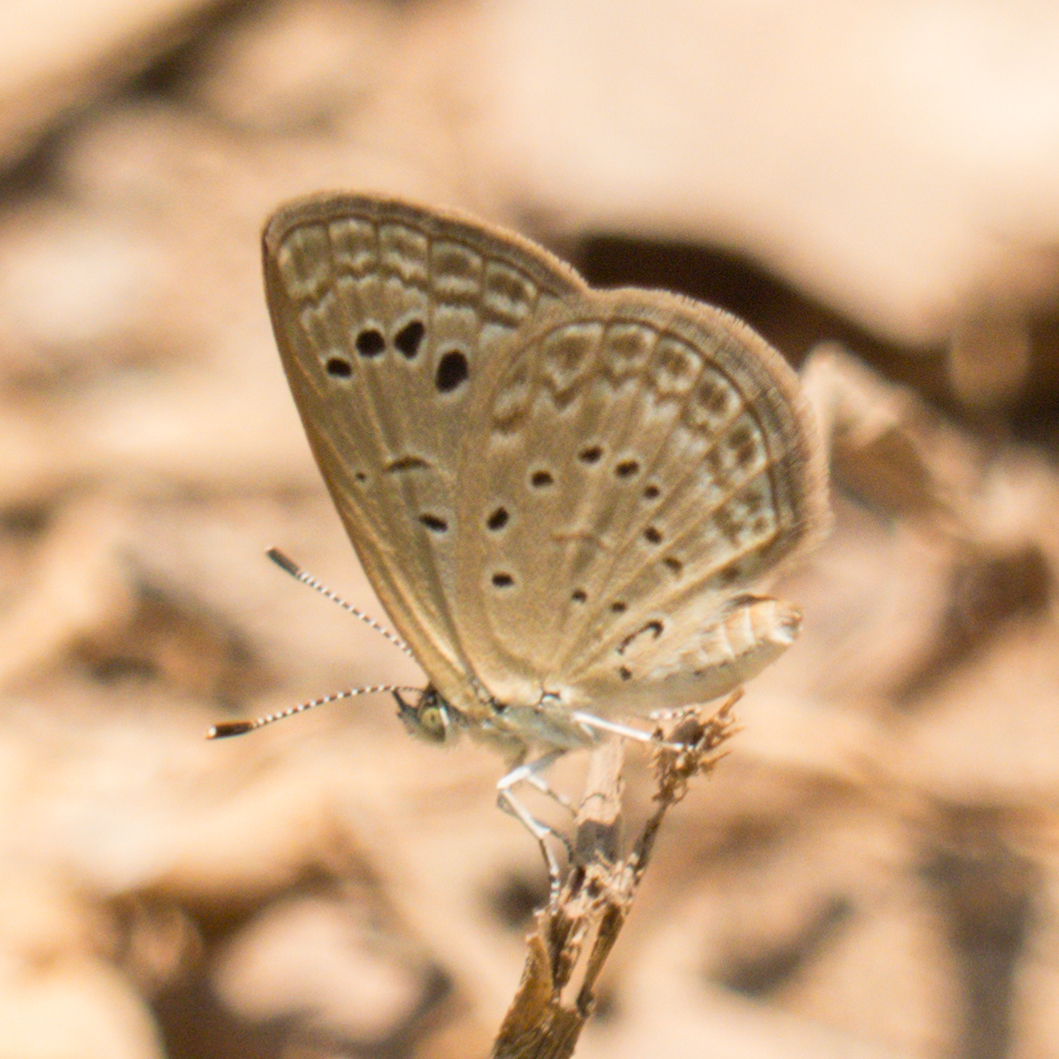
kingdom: Animalia
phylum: Arthropoda
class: Insecta
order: Lepidoptera
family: Lycaenidae
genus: Zizeeria
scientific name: Zizeeria karsandra
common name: Dark grass blue
